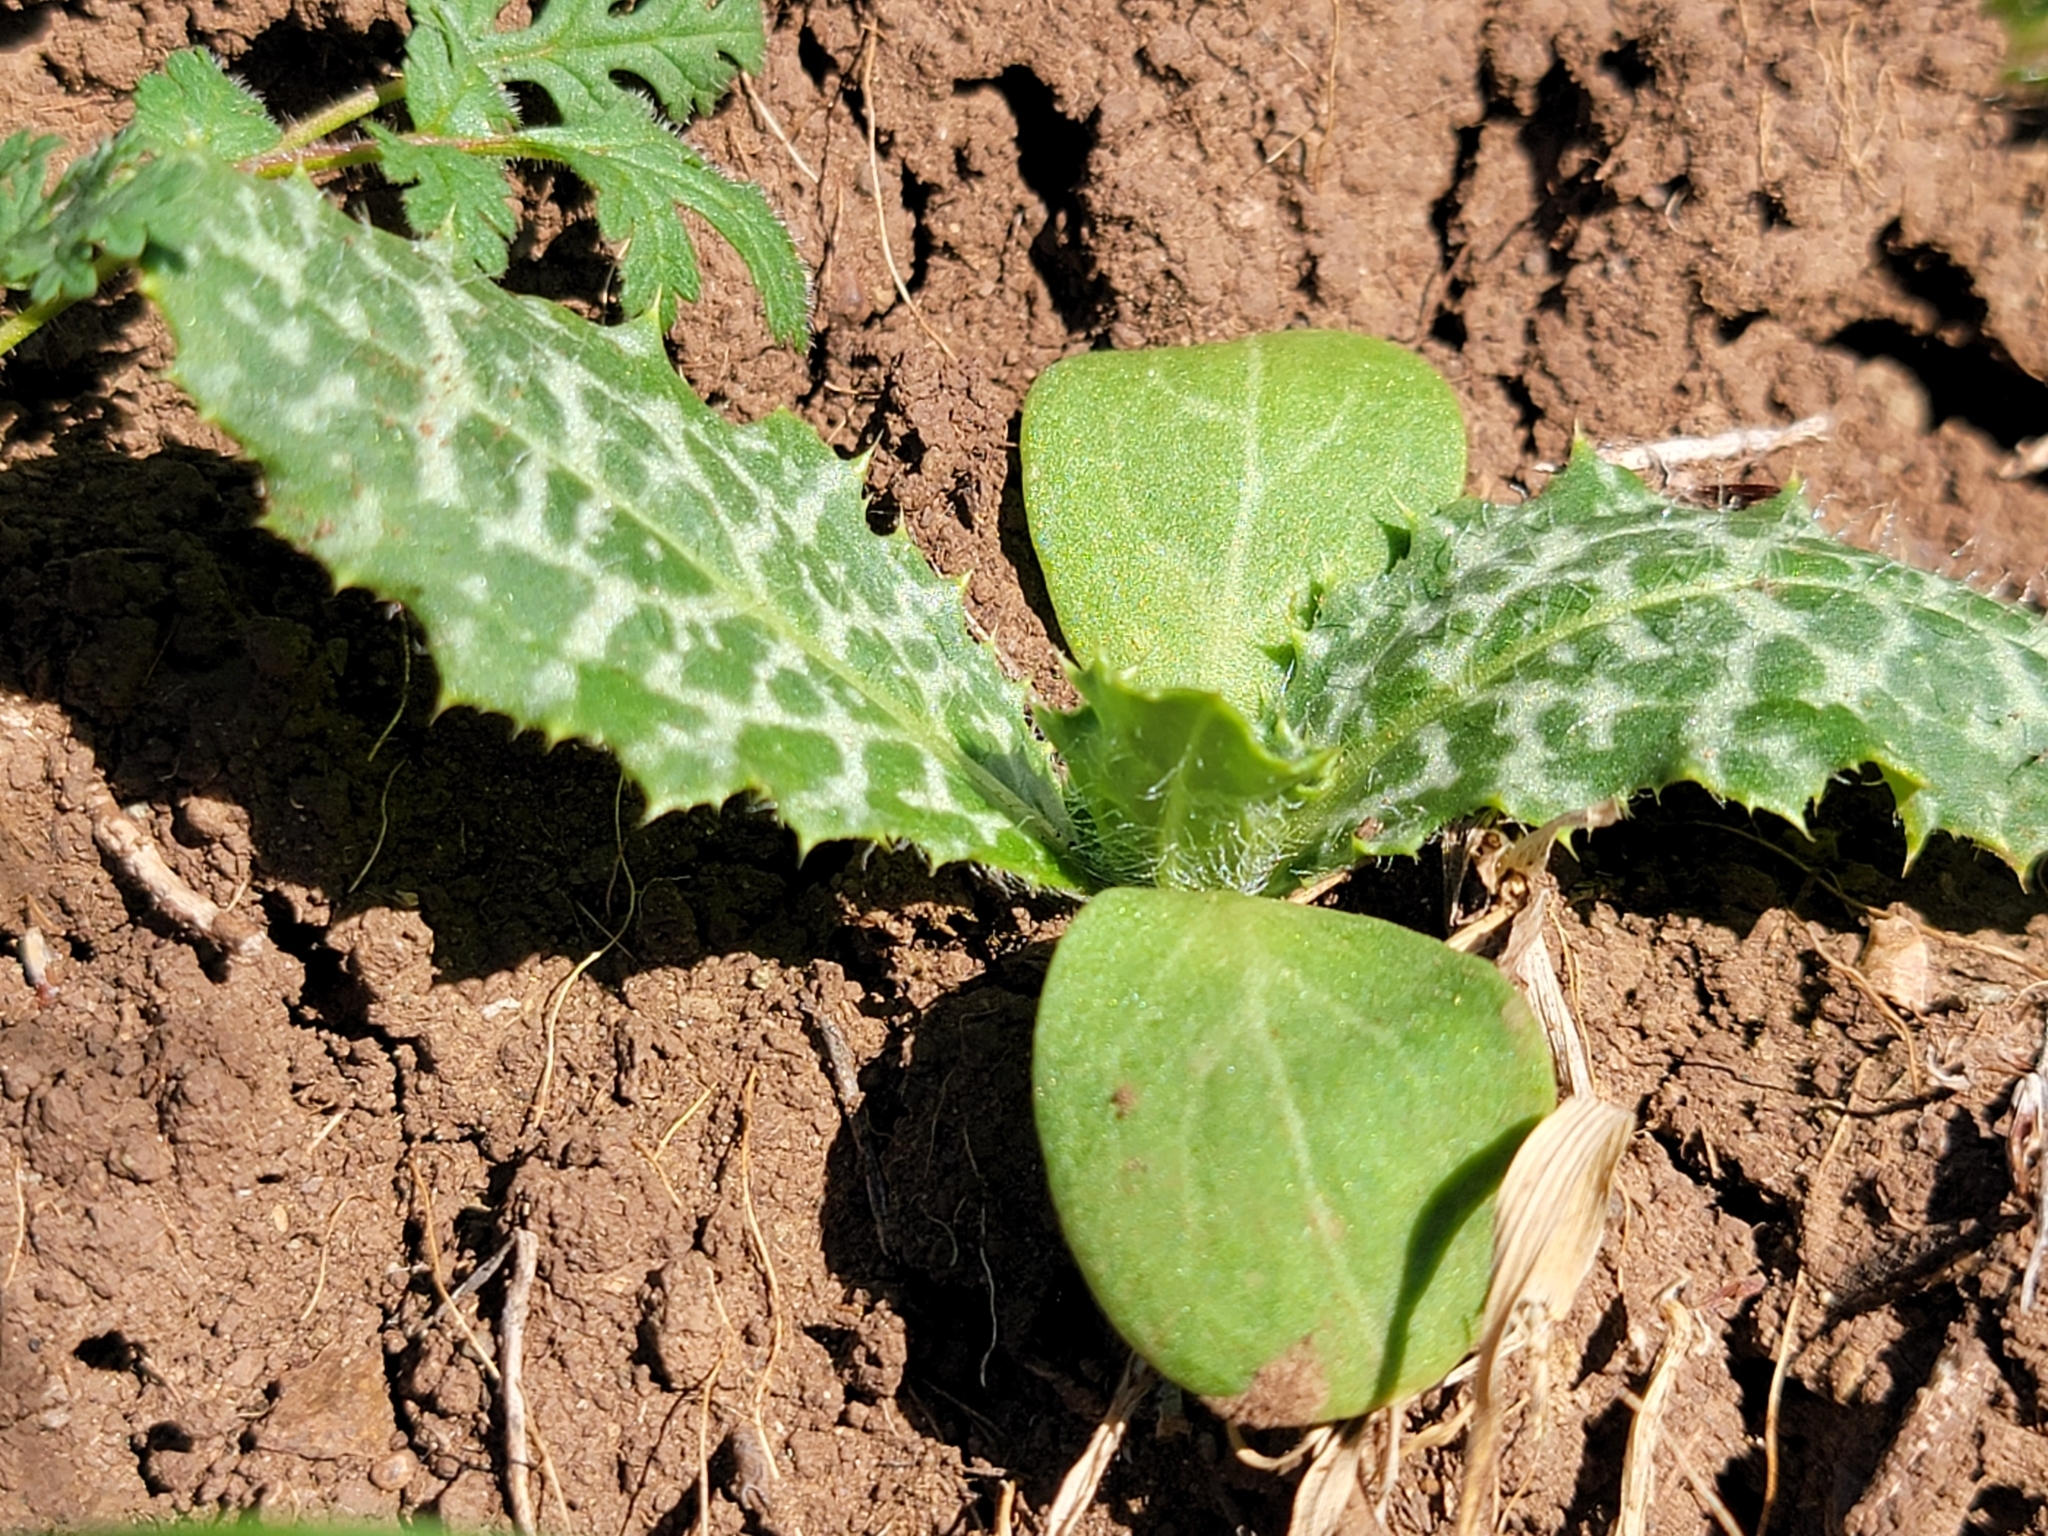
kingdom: Plantae
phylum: Tracheophyta
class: Magnoliopsida
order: Asterales
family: Asteraceae
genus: Silybum
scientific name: Silybum marianum
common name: Milk thistle
